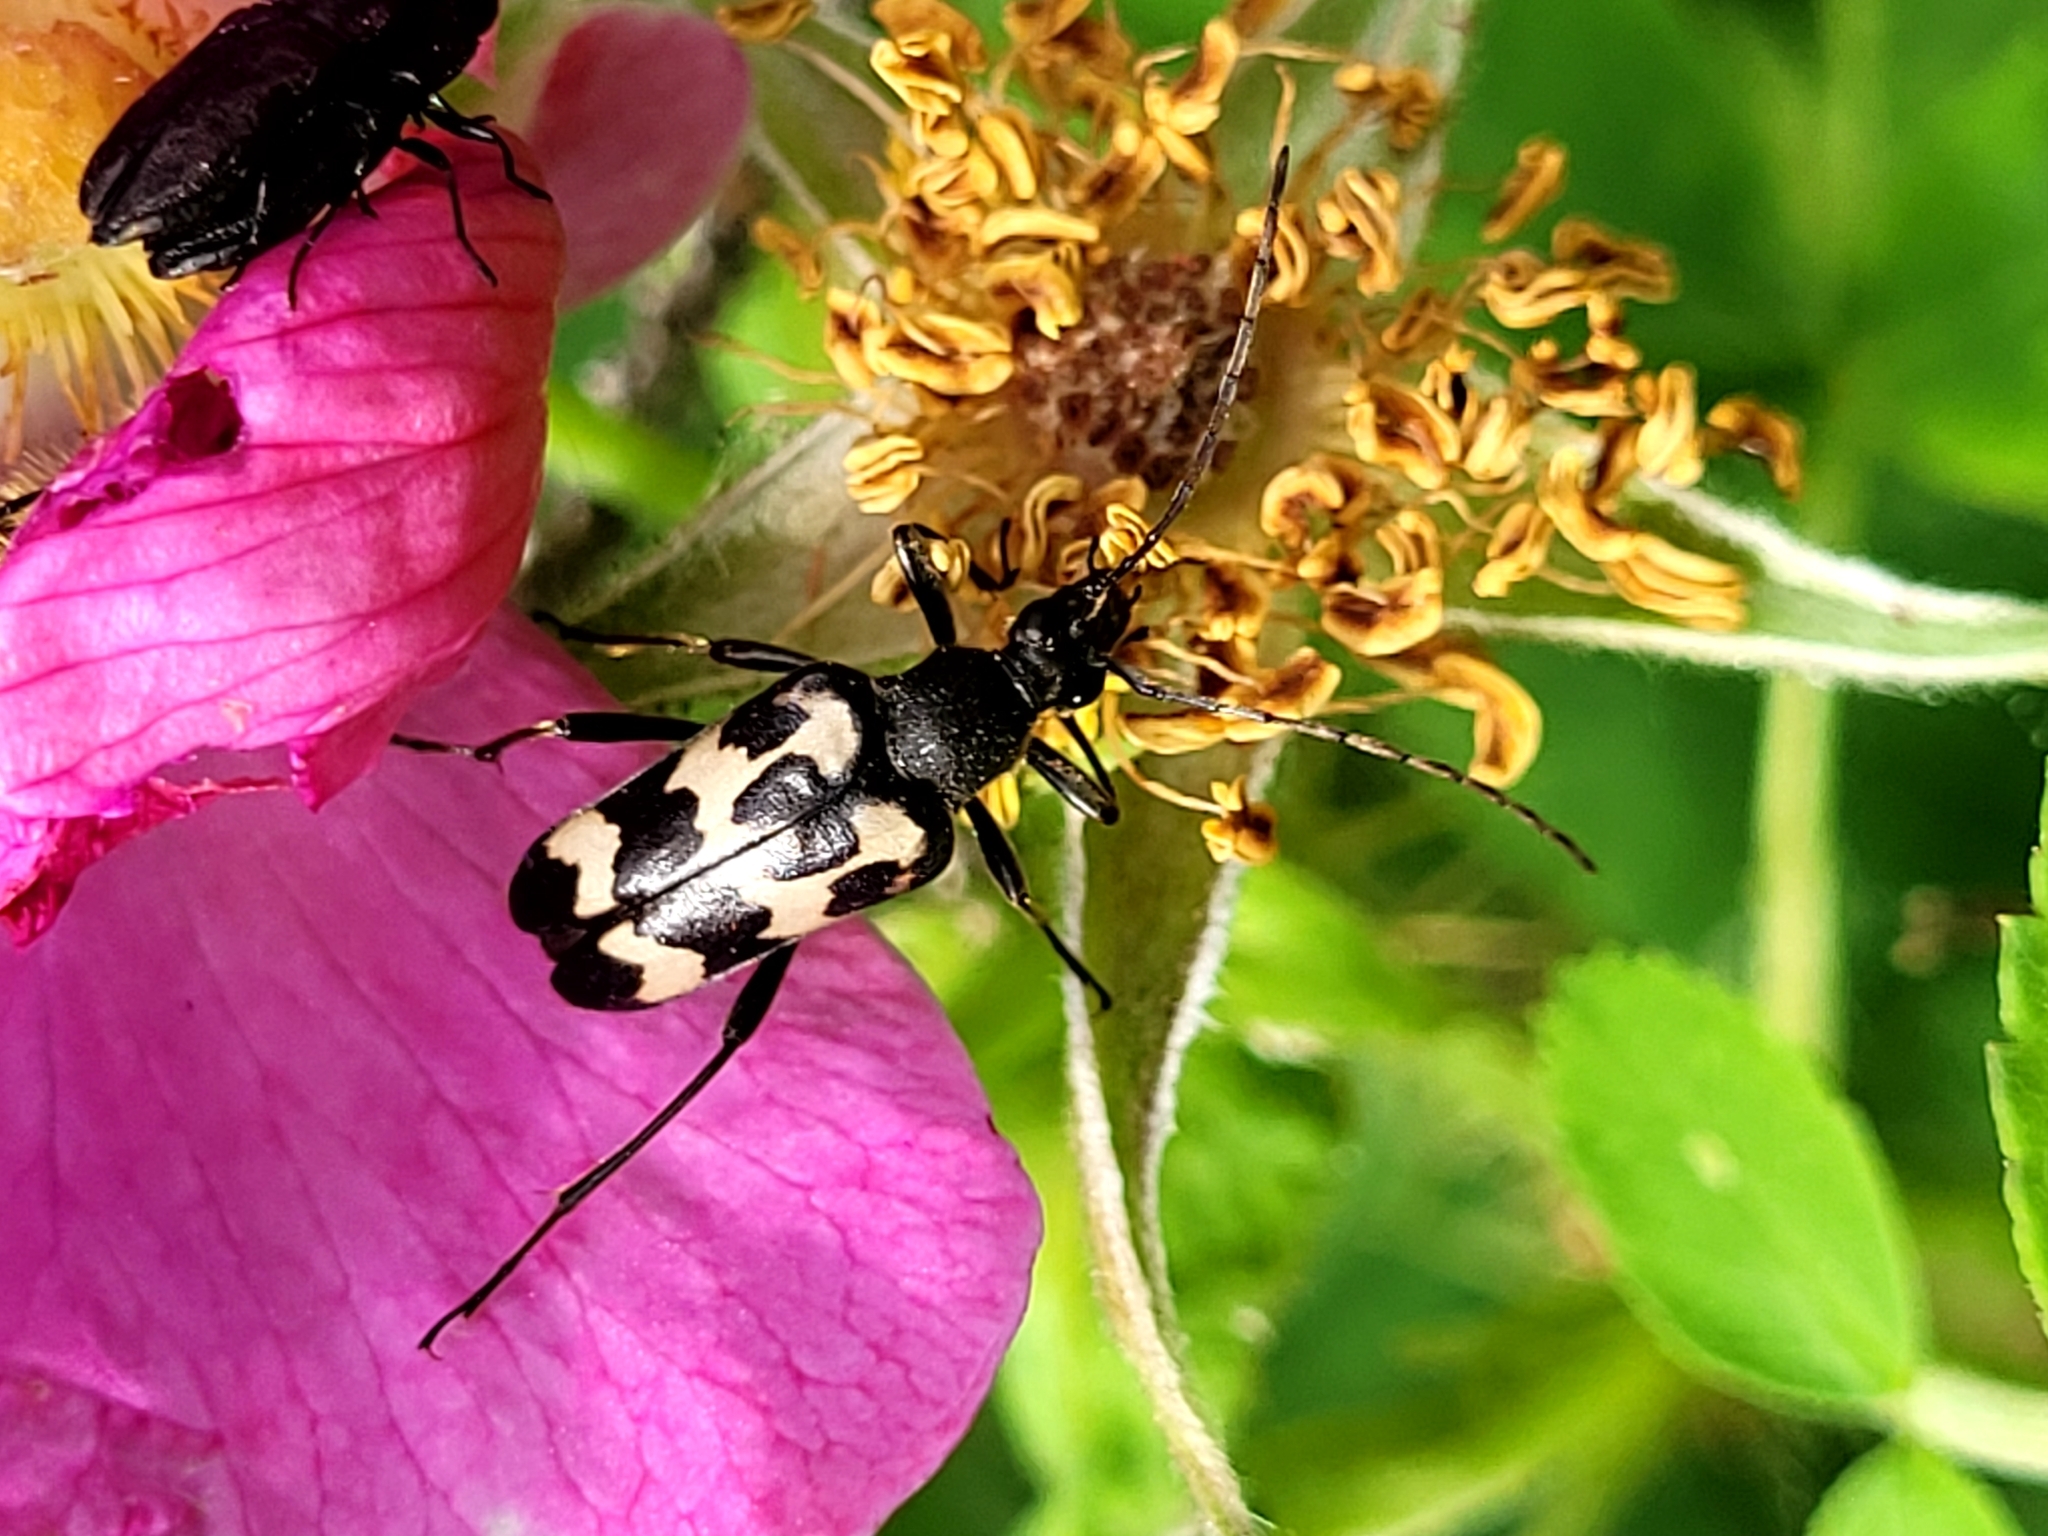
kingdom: Animalia
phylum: Arthropoda
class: Insecta
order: Coleoptera
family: Cerambycidae
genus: Judolia
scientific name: Judolia montivagans
